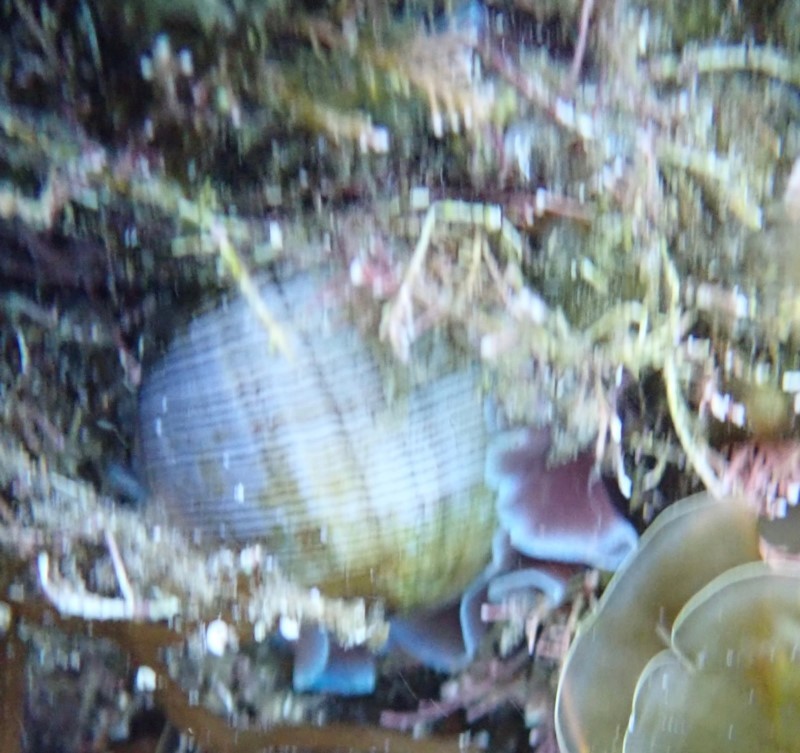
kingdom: Animalia
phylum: Mollusca
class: Gastropoda
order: Cephalaspidea
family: Aplustridae
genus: Hydatina
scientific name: Hydatina physis
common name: Brown-line paperbubble
